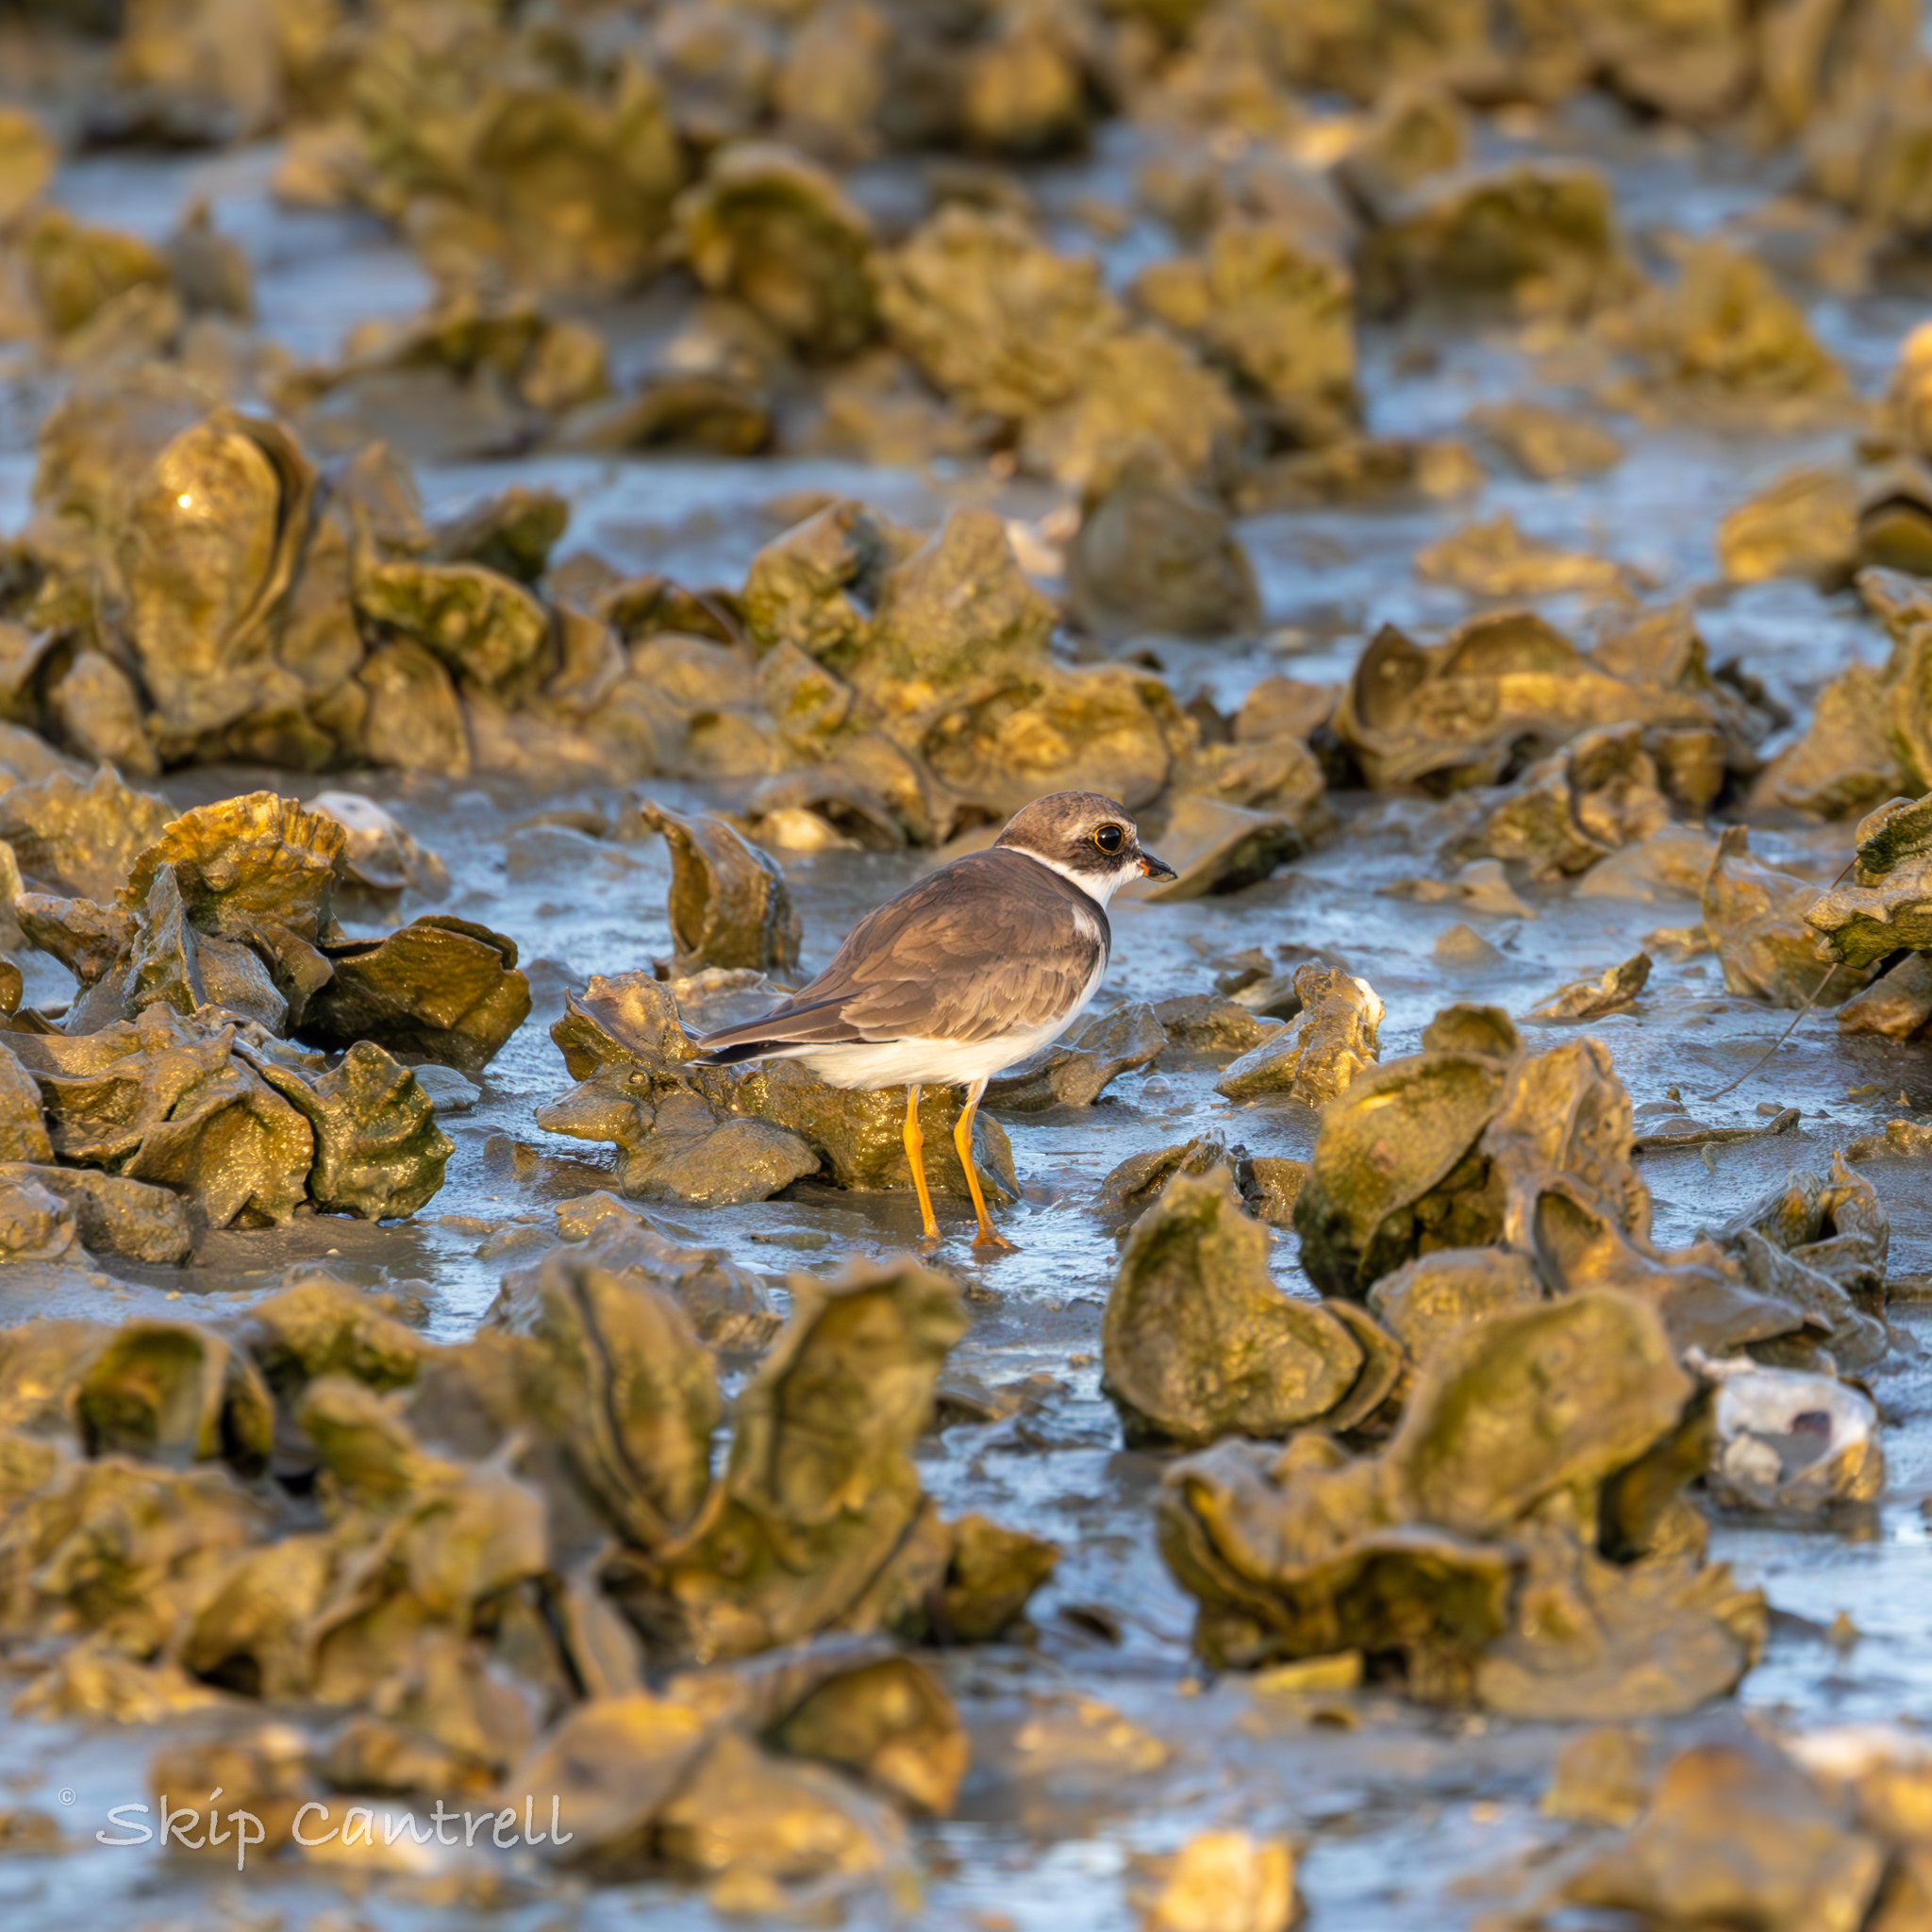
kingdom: Animalia
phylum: Chordata
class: Aves
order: Charadriiformes
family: Charadriidae
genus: Charadrius
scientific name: Charadrius semipalmatus
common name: Semipalmated plover
